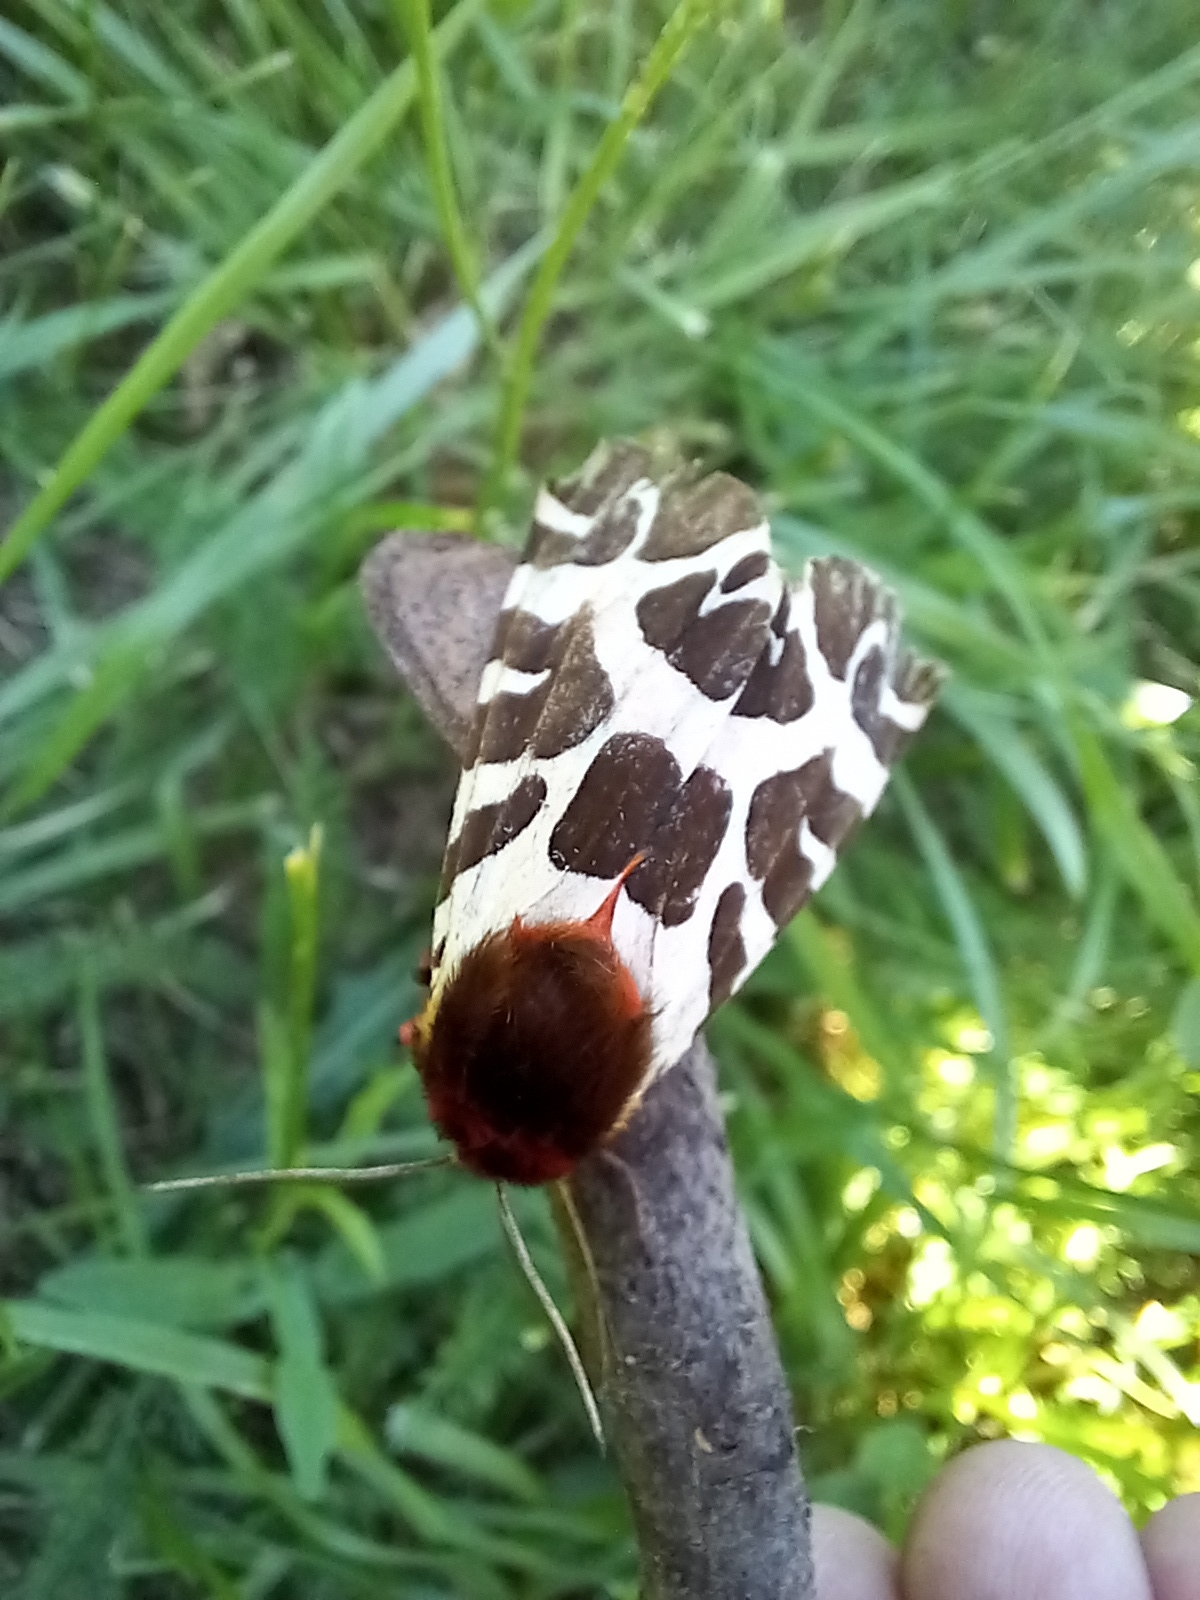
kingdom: Animalia
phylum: Arthropoda
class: Insecta
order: Lepidoptera
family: Erebidae
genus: Arctia
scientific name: Arctia caja
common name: Garden tiger
